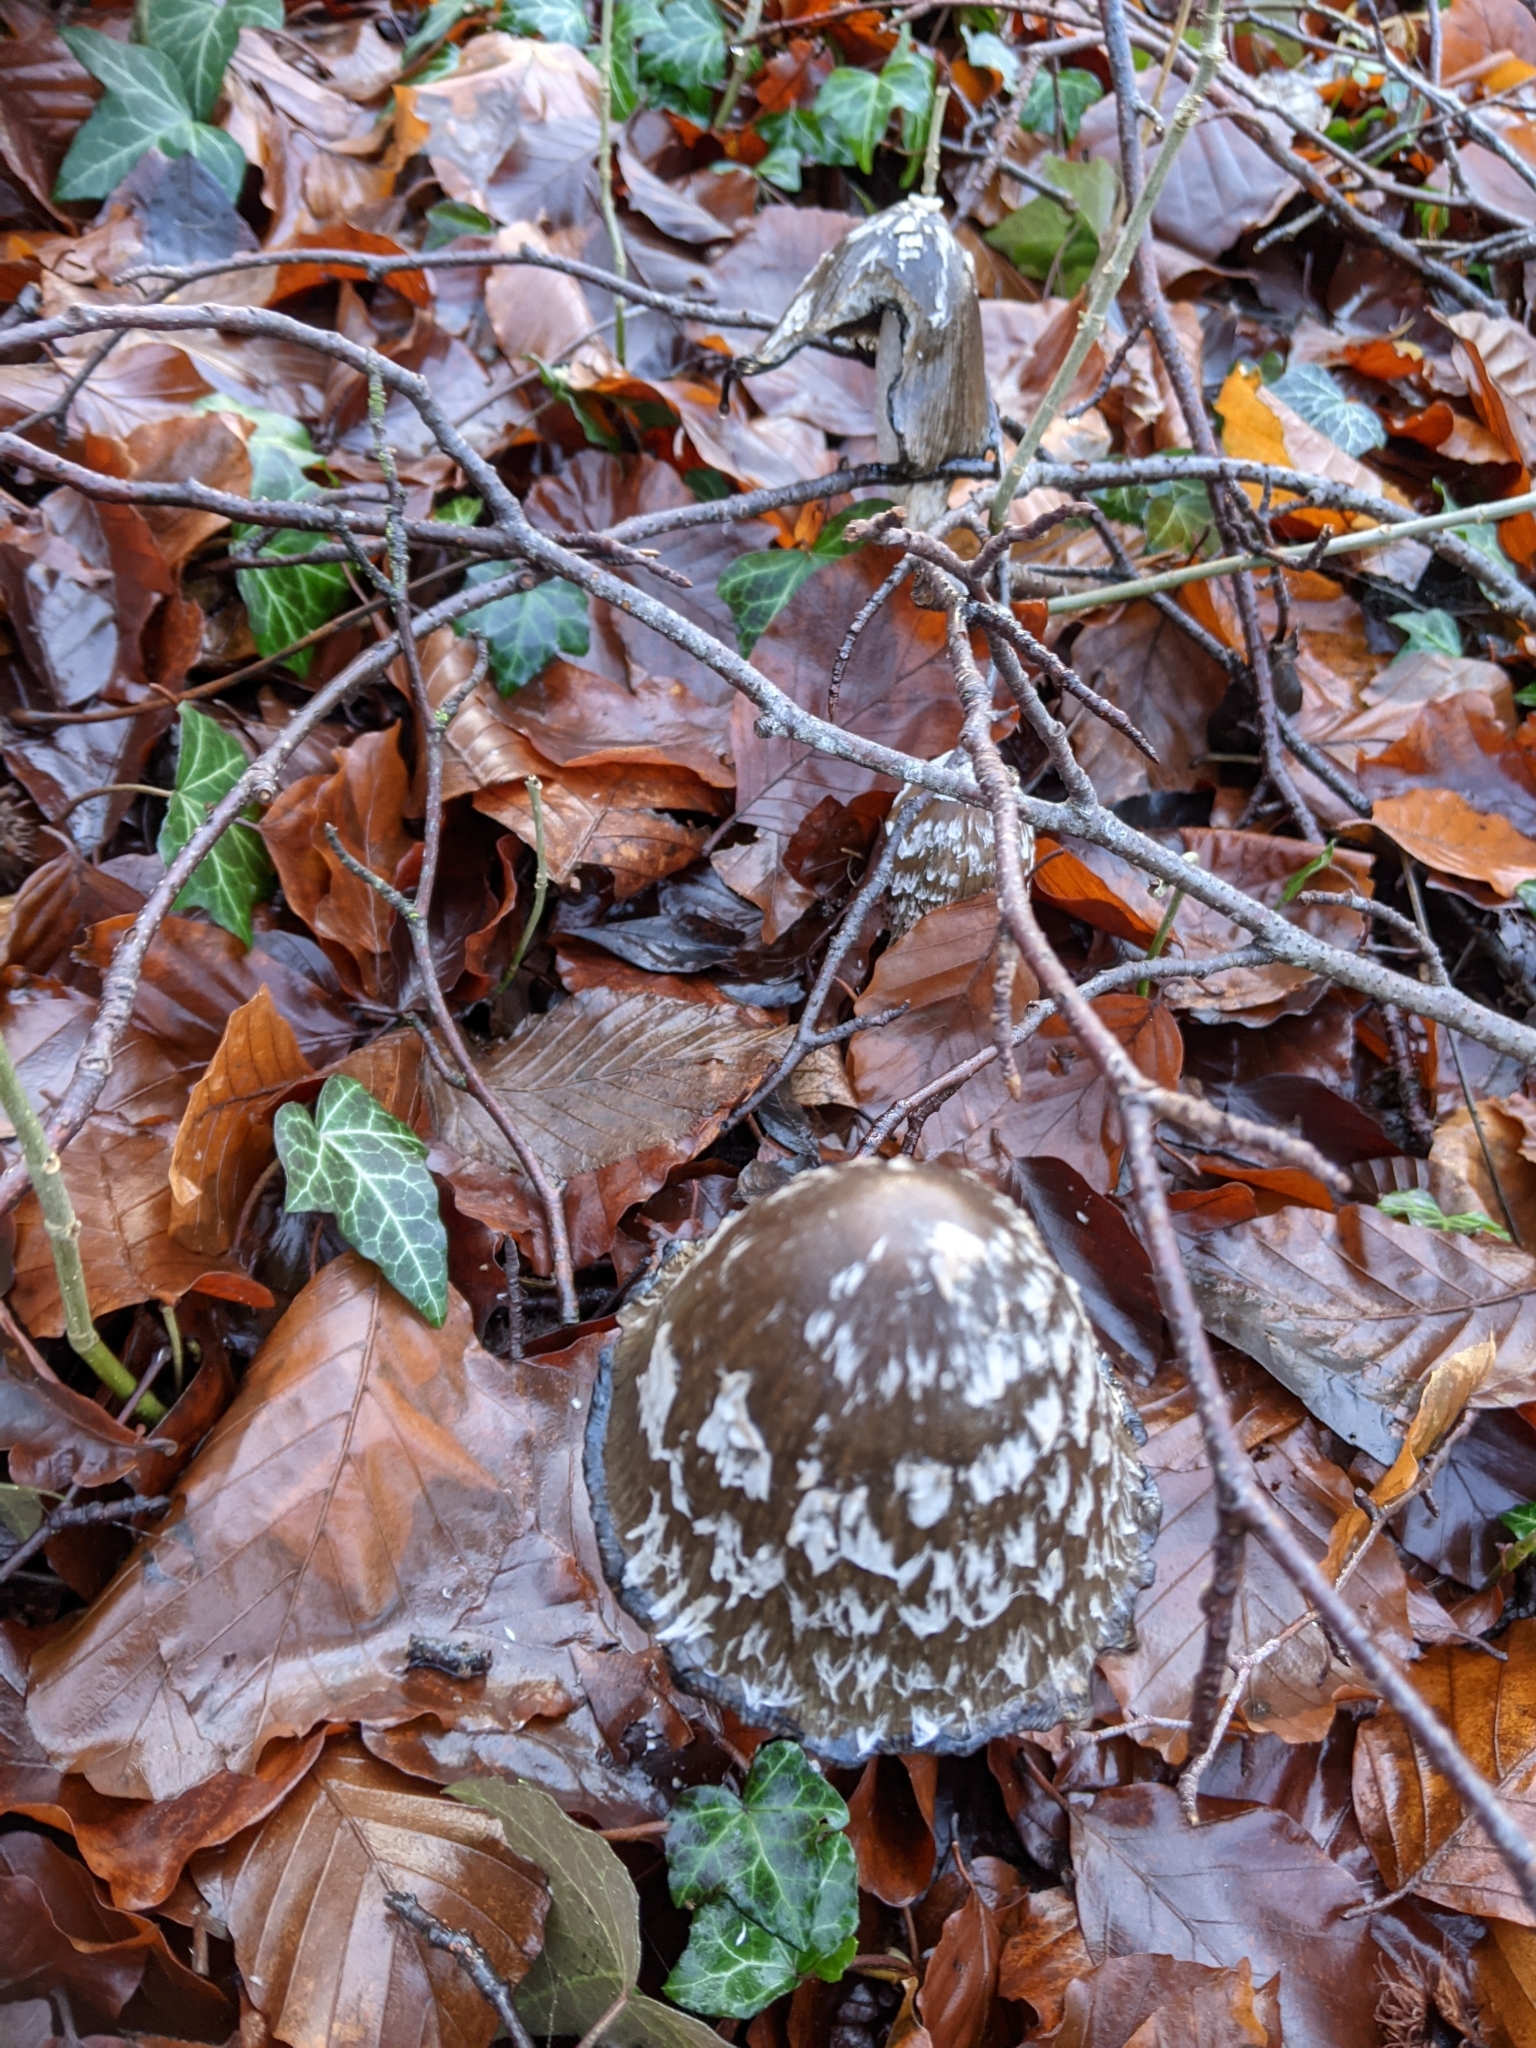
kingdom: Fungi
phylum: Basidiomycota
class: Agaricomycetes
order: Agaricales
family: Psathyrellaceae
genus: Coprinopsis
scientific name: Coprinopsis picacea
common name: Magpie inkcap
